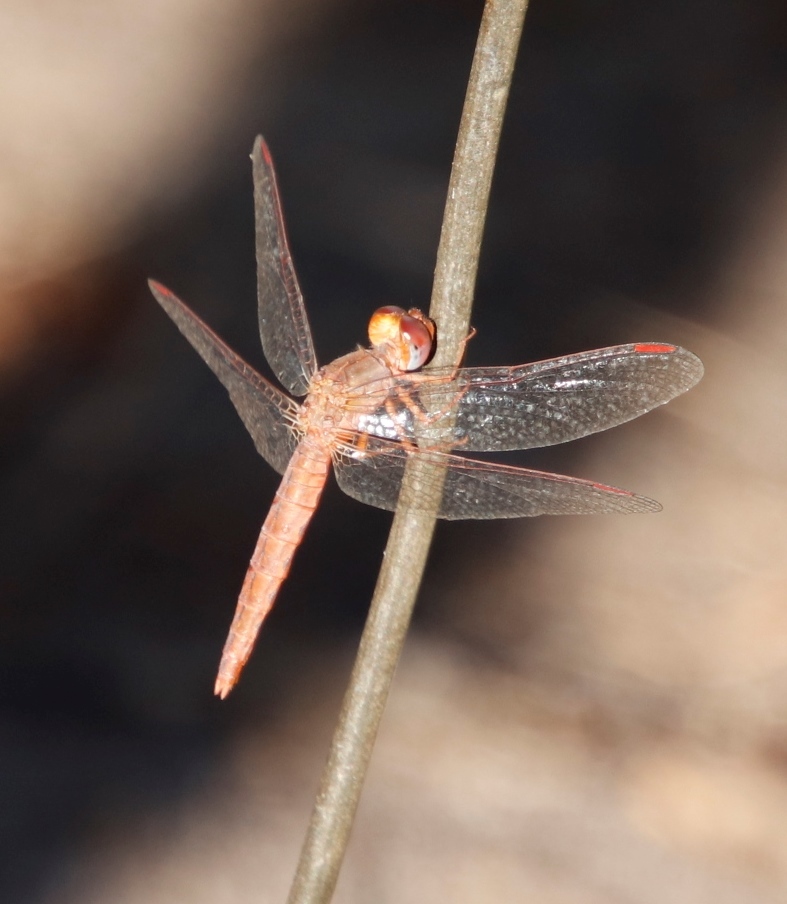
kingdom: Animalia
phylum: Arthropoda
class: Insecta
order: Odonata
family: Libellulidae
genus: Crocothemis
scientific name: Crocothemis sanguinolenta
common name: Little scarlet
